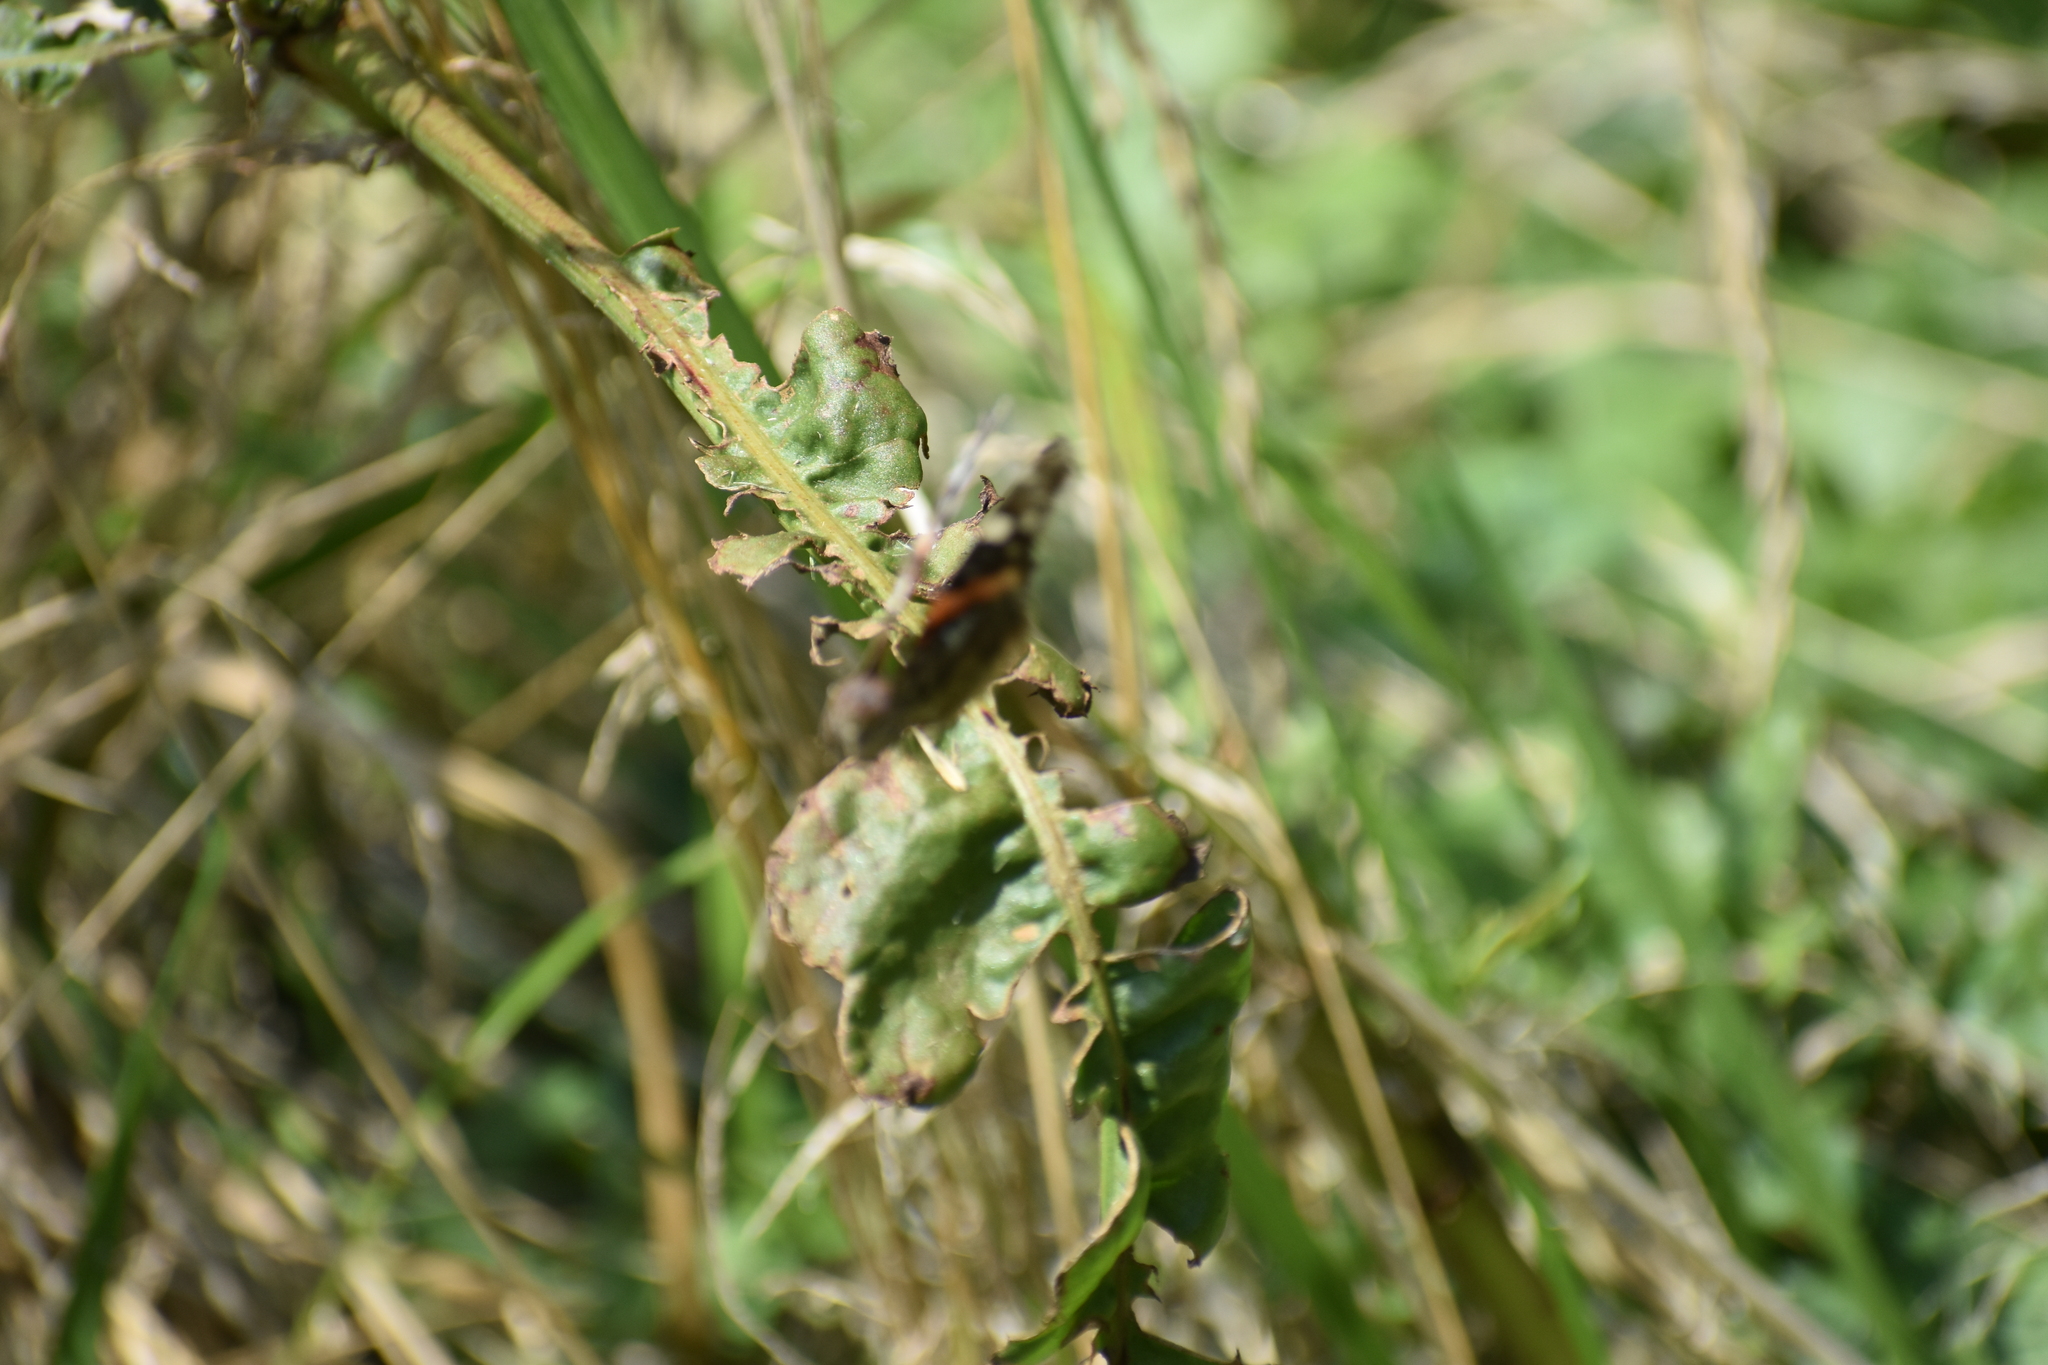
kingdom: Animalia
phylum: Arthropoda
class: Insecta
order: Lepidoptera
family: Nymphalidae
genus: Vanessa
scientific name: Vanessa atalanta
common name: Red admiral
